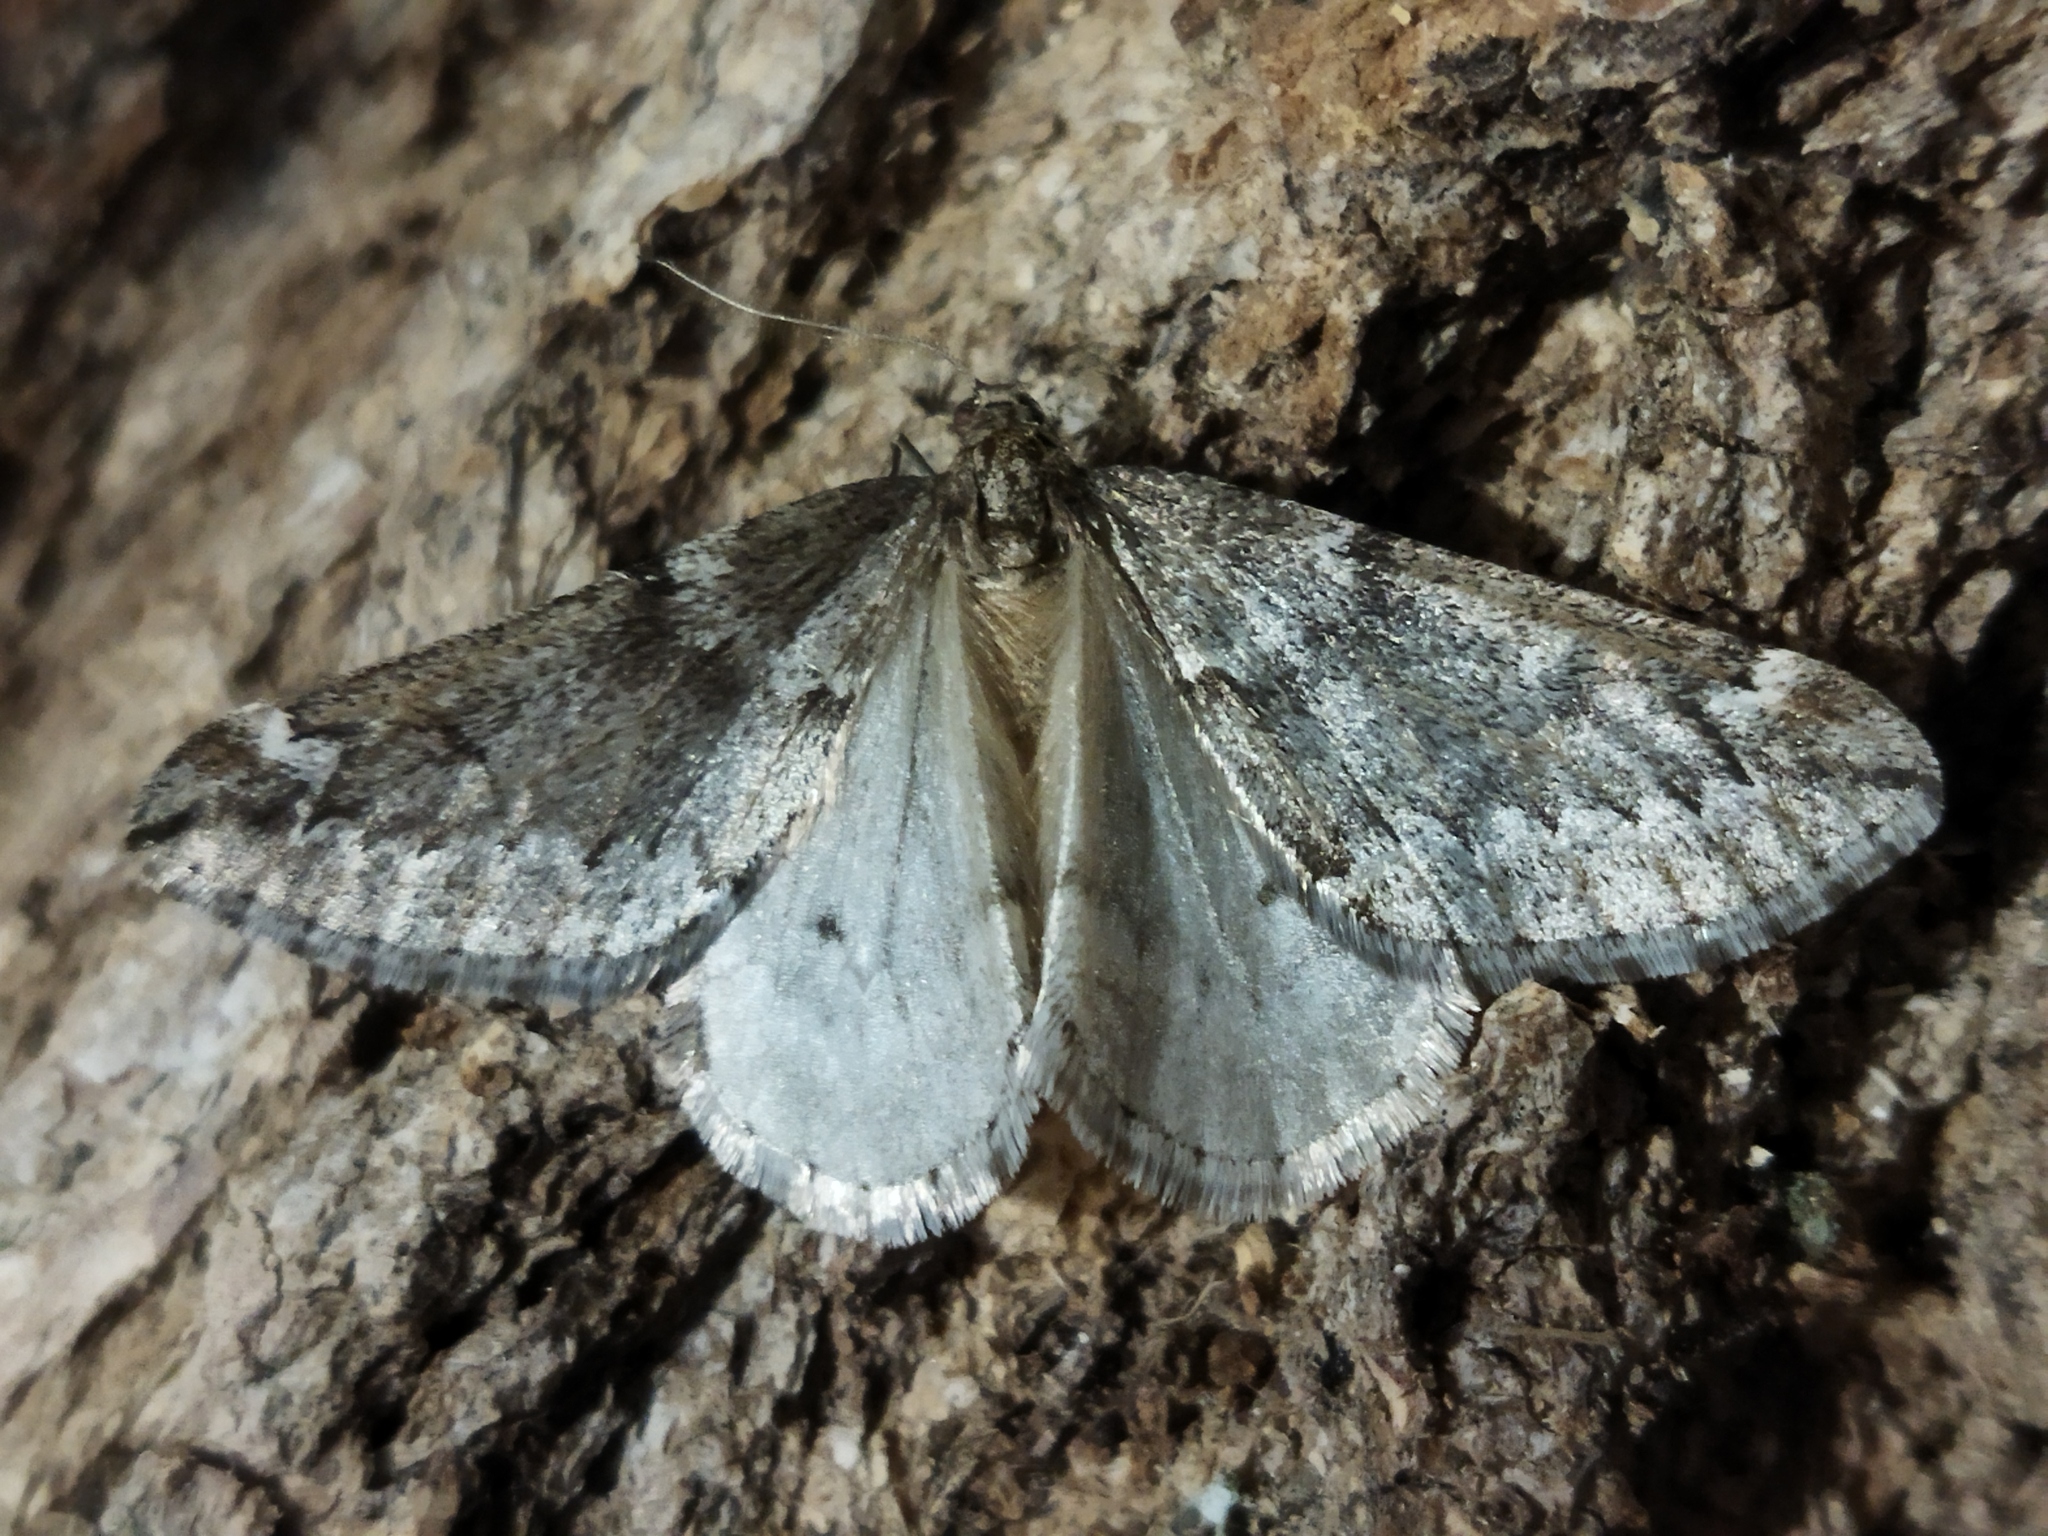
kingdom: Animalia
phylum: Arthropoda
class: Insecta
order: Lepidoptera
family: Geometridae
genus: Alsophila
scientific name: Alsophila aescularia
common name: March moth
